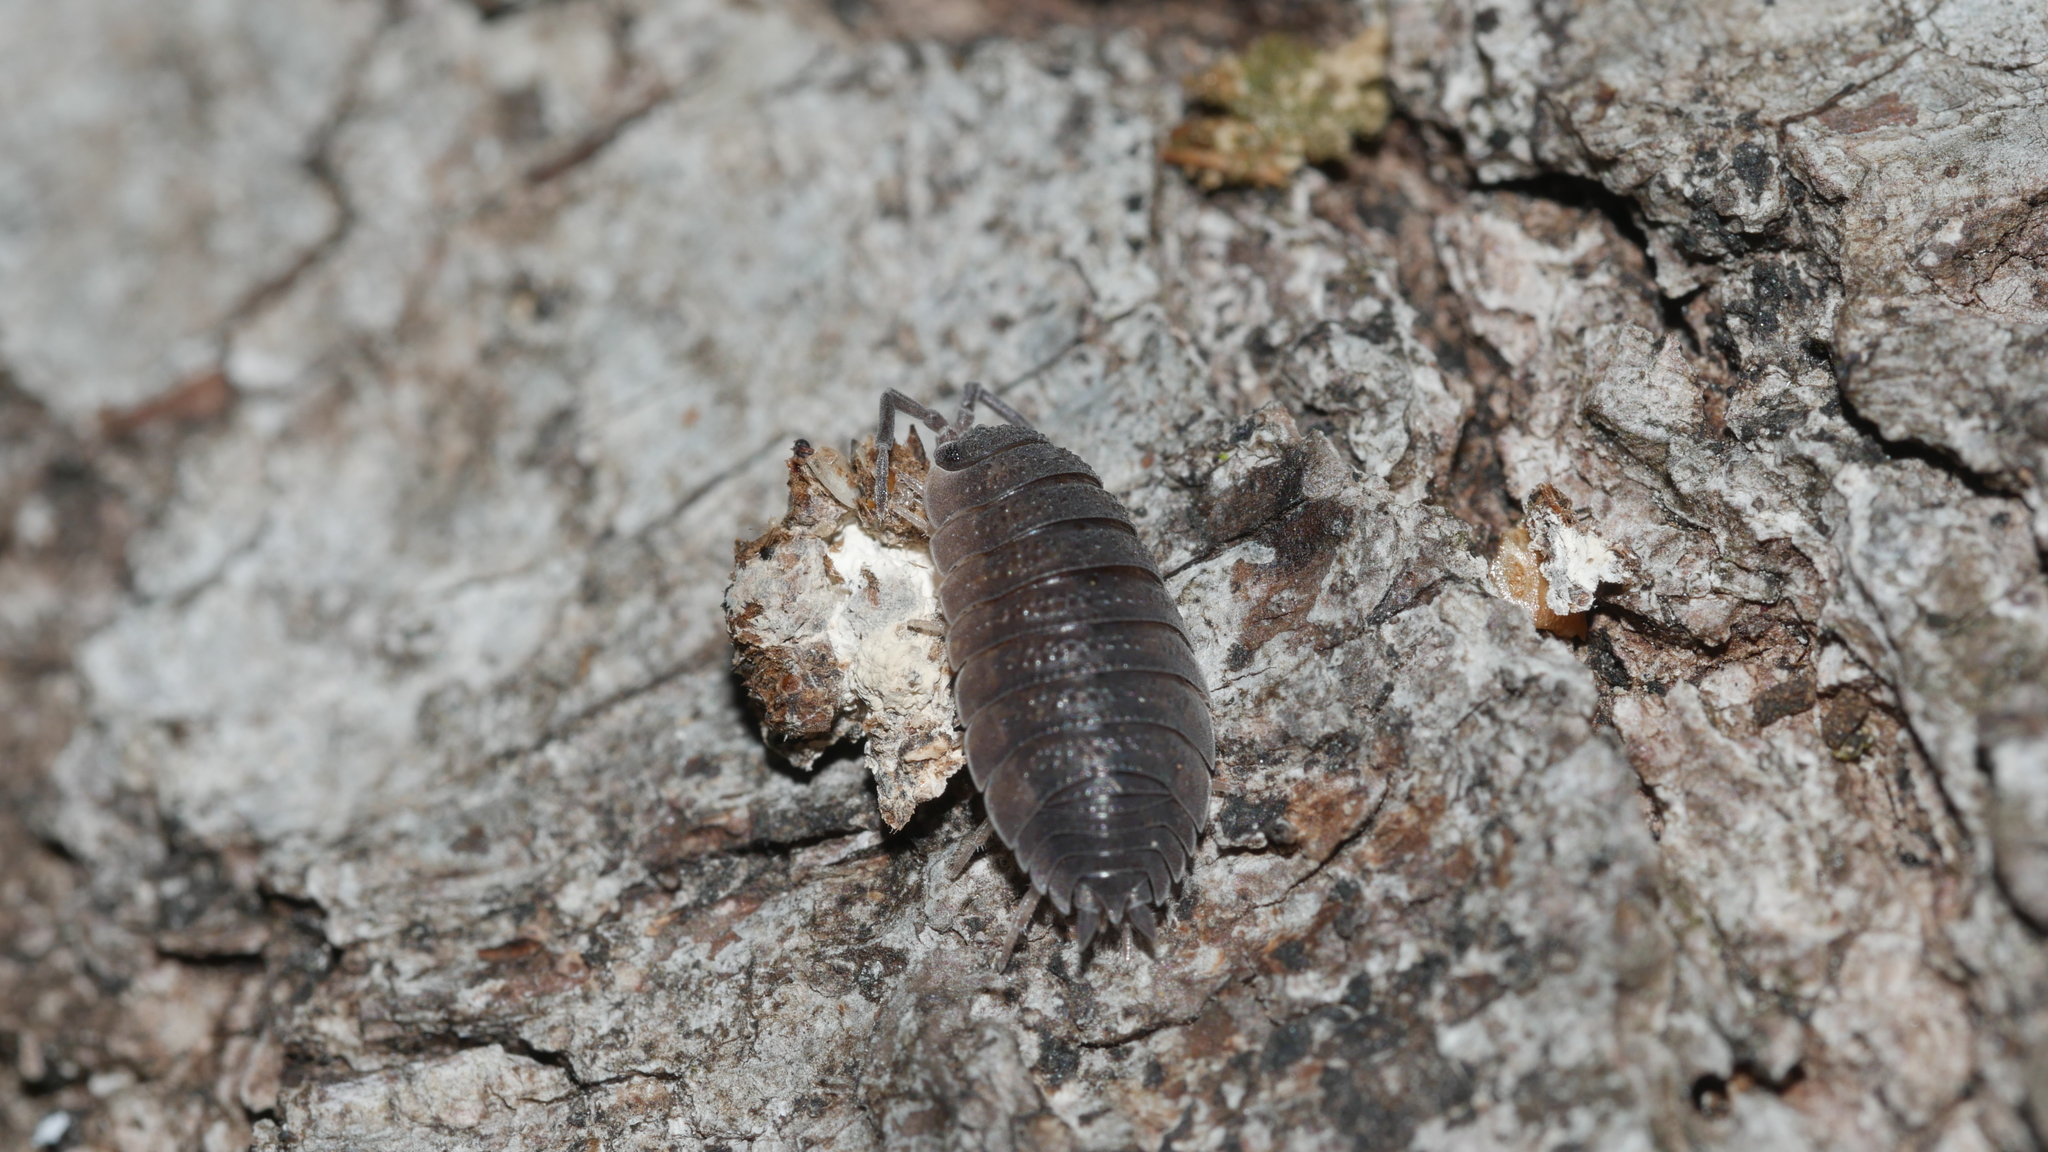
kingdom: Animalia
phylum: Arthropoda
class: Malacostraca
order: Isopoda
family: Porcellionidae
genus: Porcellio
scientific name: Porcellio scaber
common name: Common rough woodlouse
